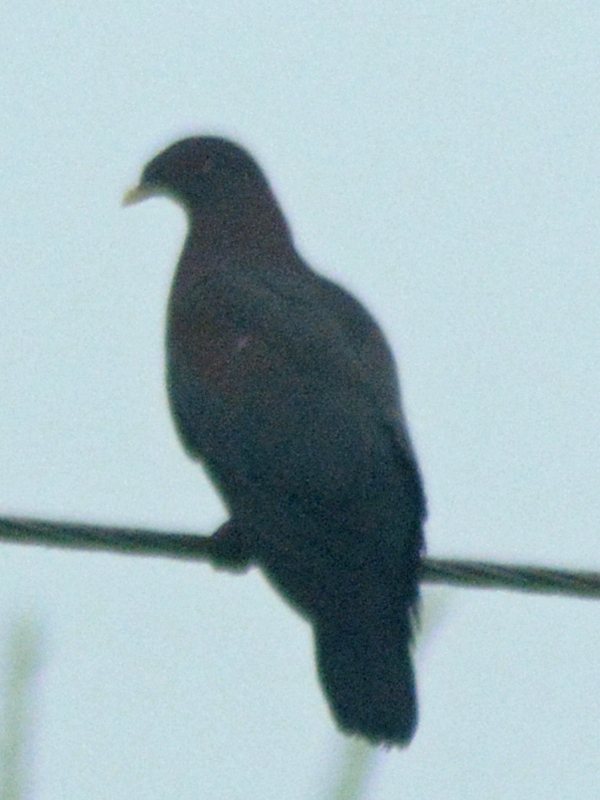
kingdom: Animalia
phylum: Chordata
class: Aves
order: Columbiformes
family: Columbidae
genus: Patagioenas
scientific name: Patagioenas flavirostris
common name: Red-billed pigeon
